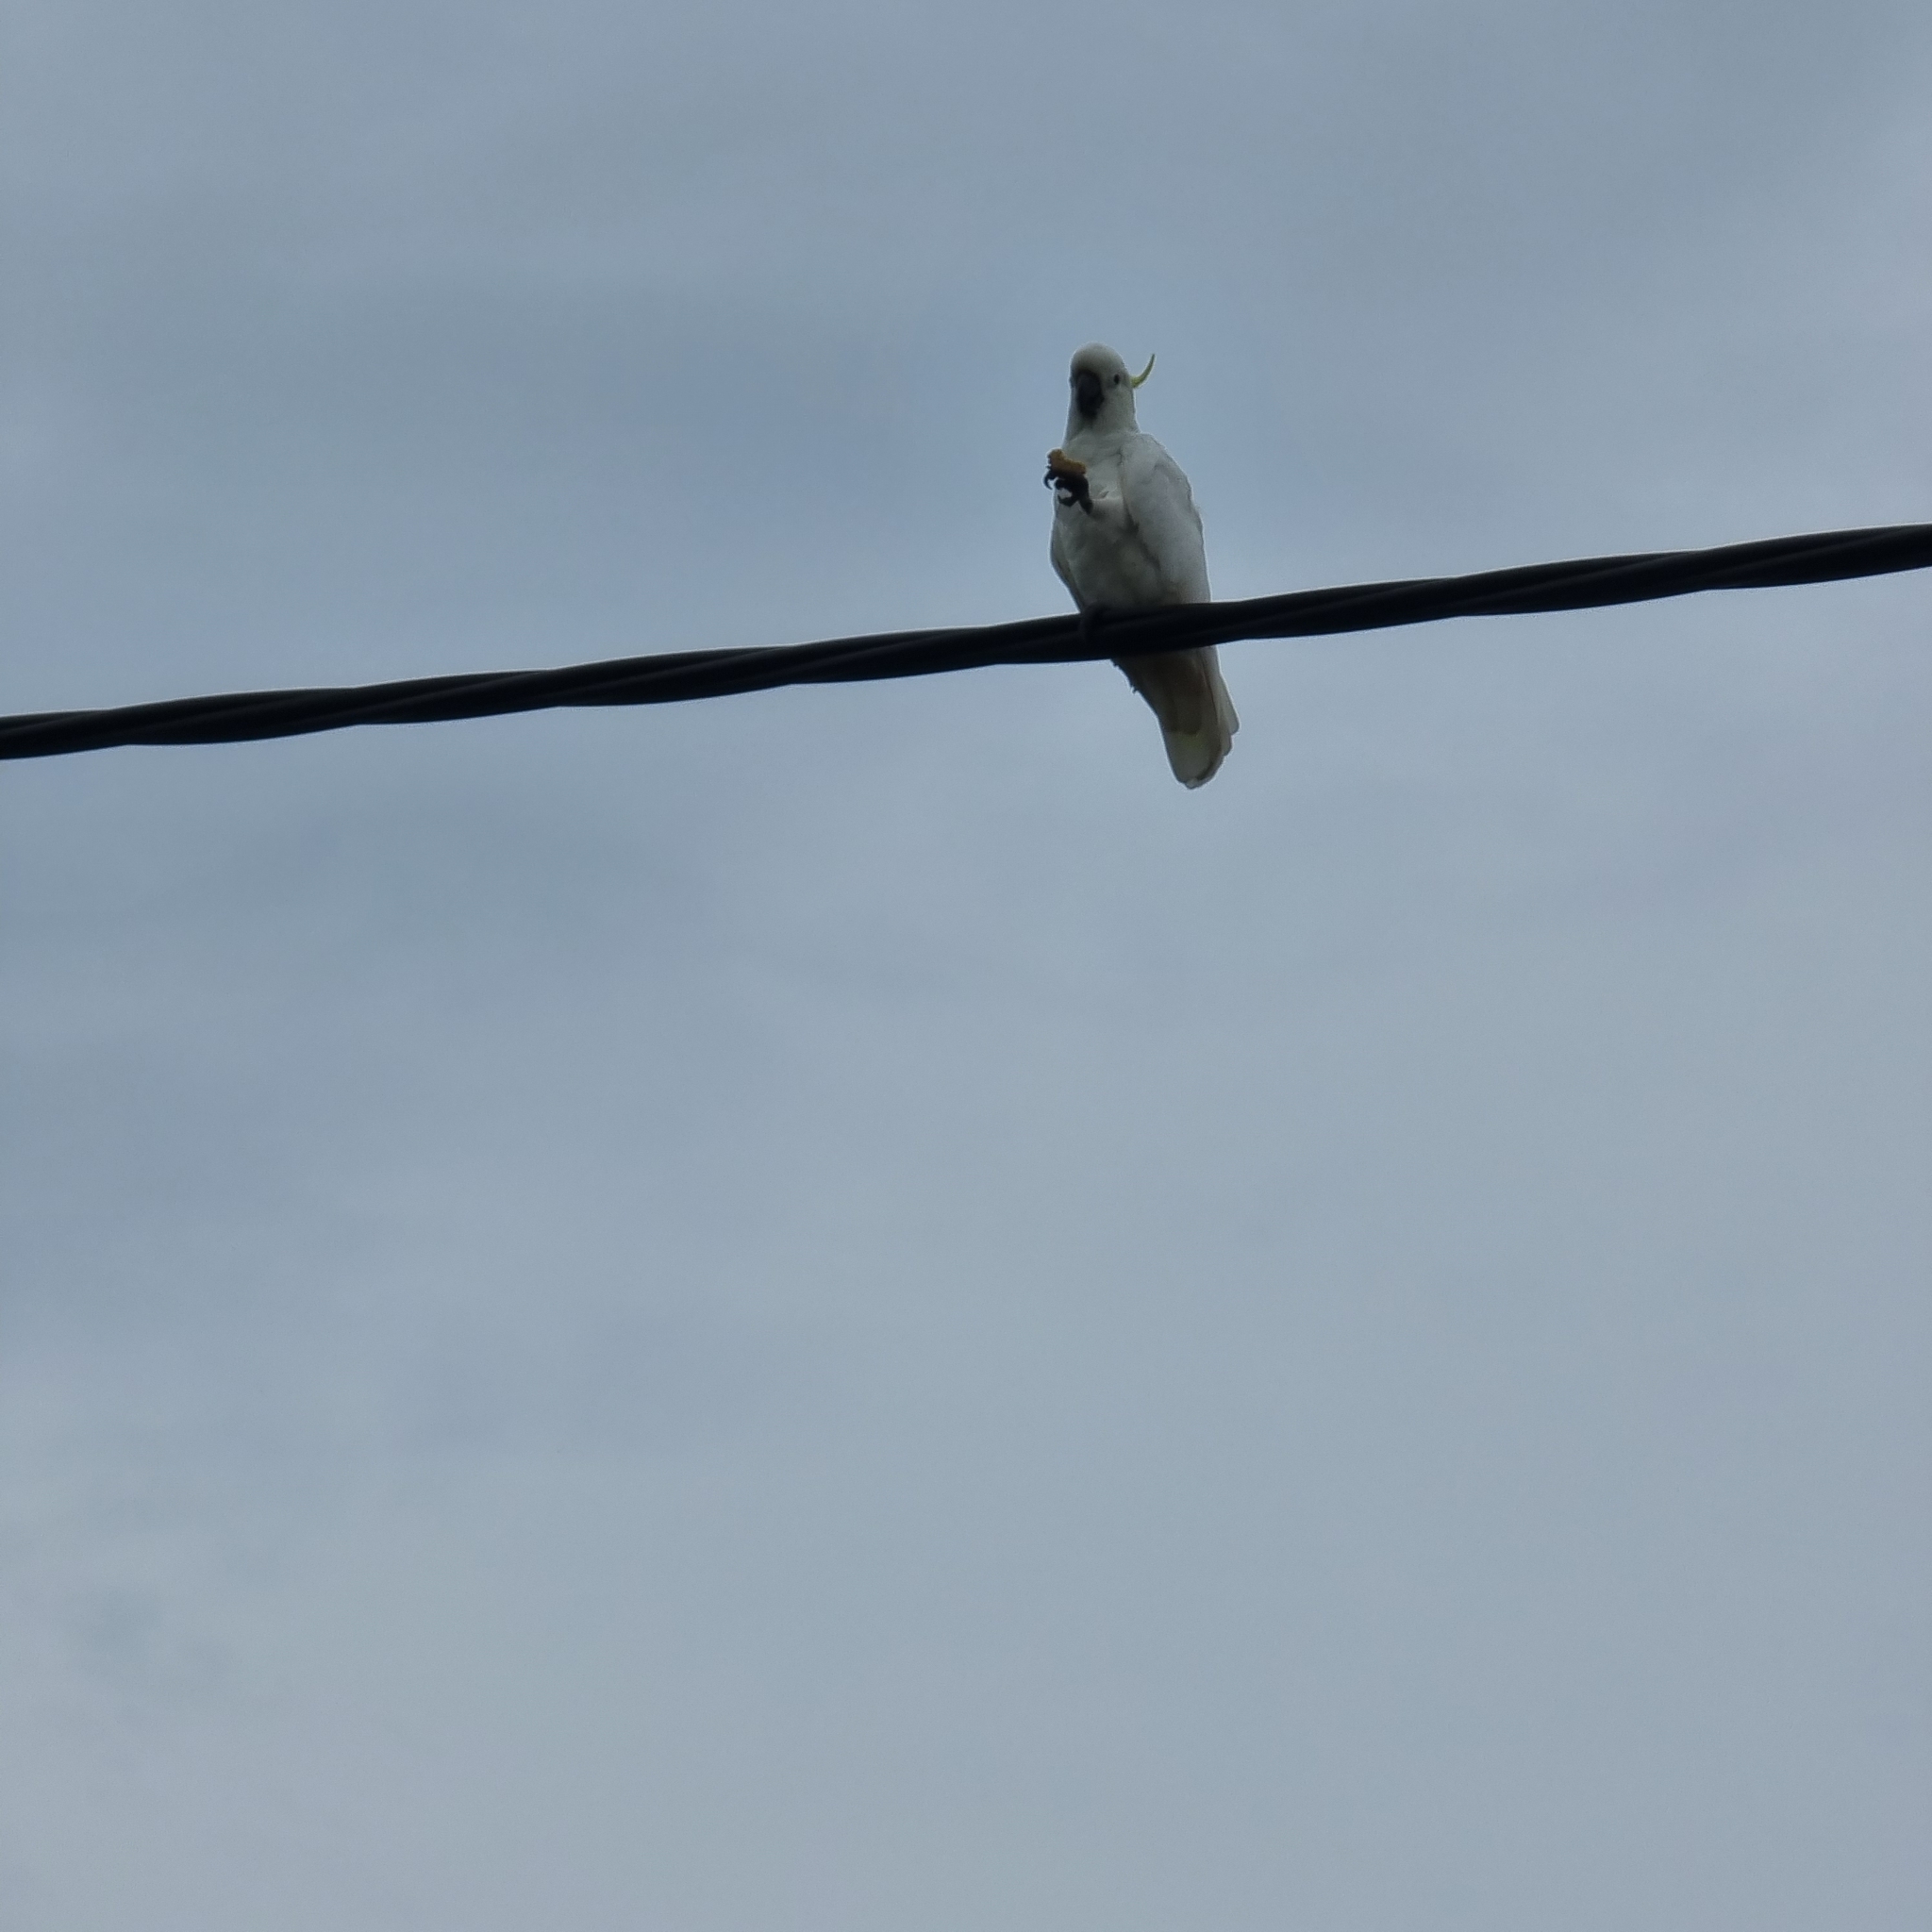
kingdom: Animalia
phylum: Chordata
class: Aves
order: Psittaciformes
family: Psittacidae
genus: Cacatua
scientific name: Cacatua galerita
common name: Sulphur-crested cockatoo
